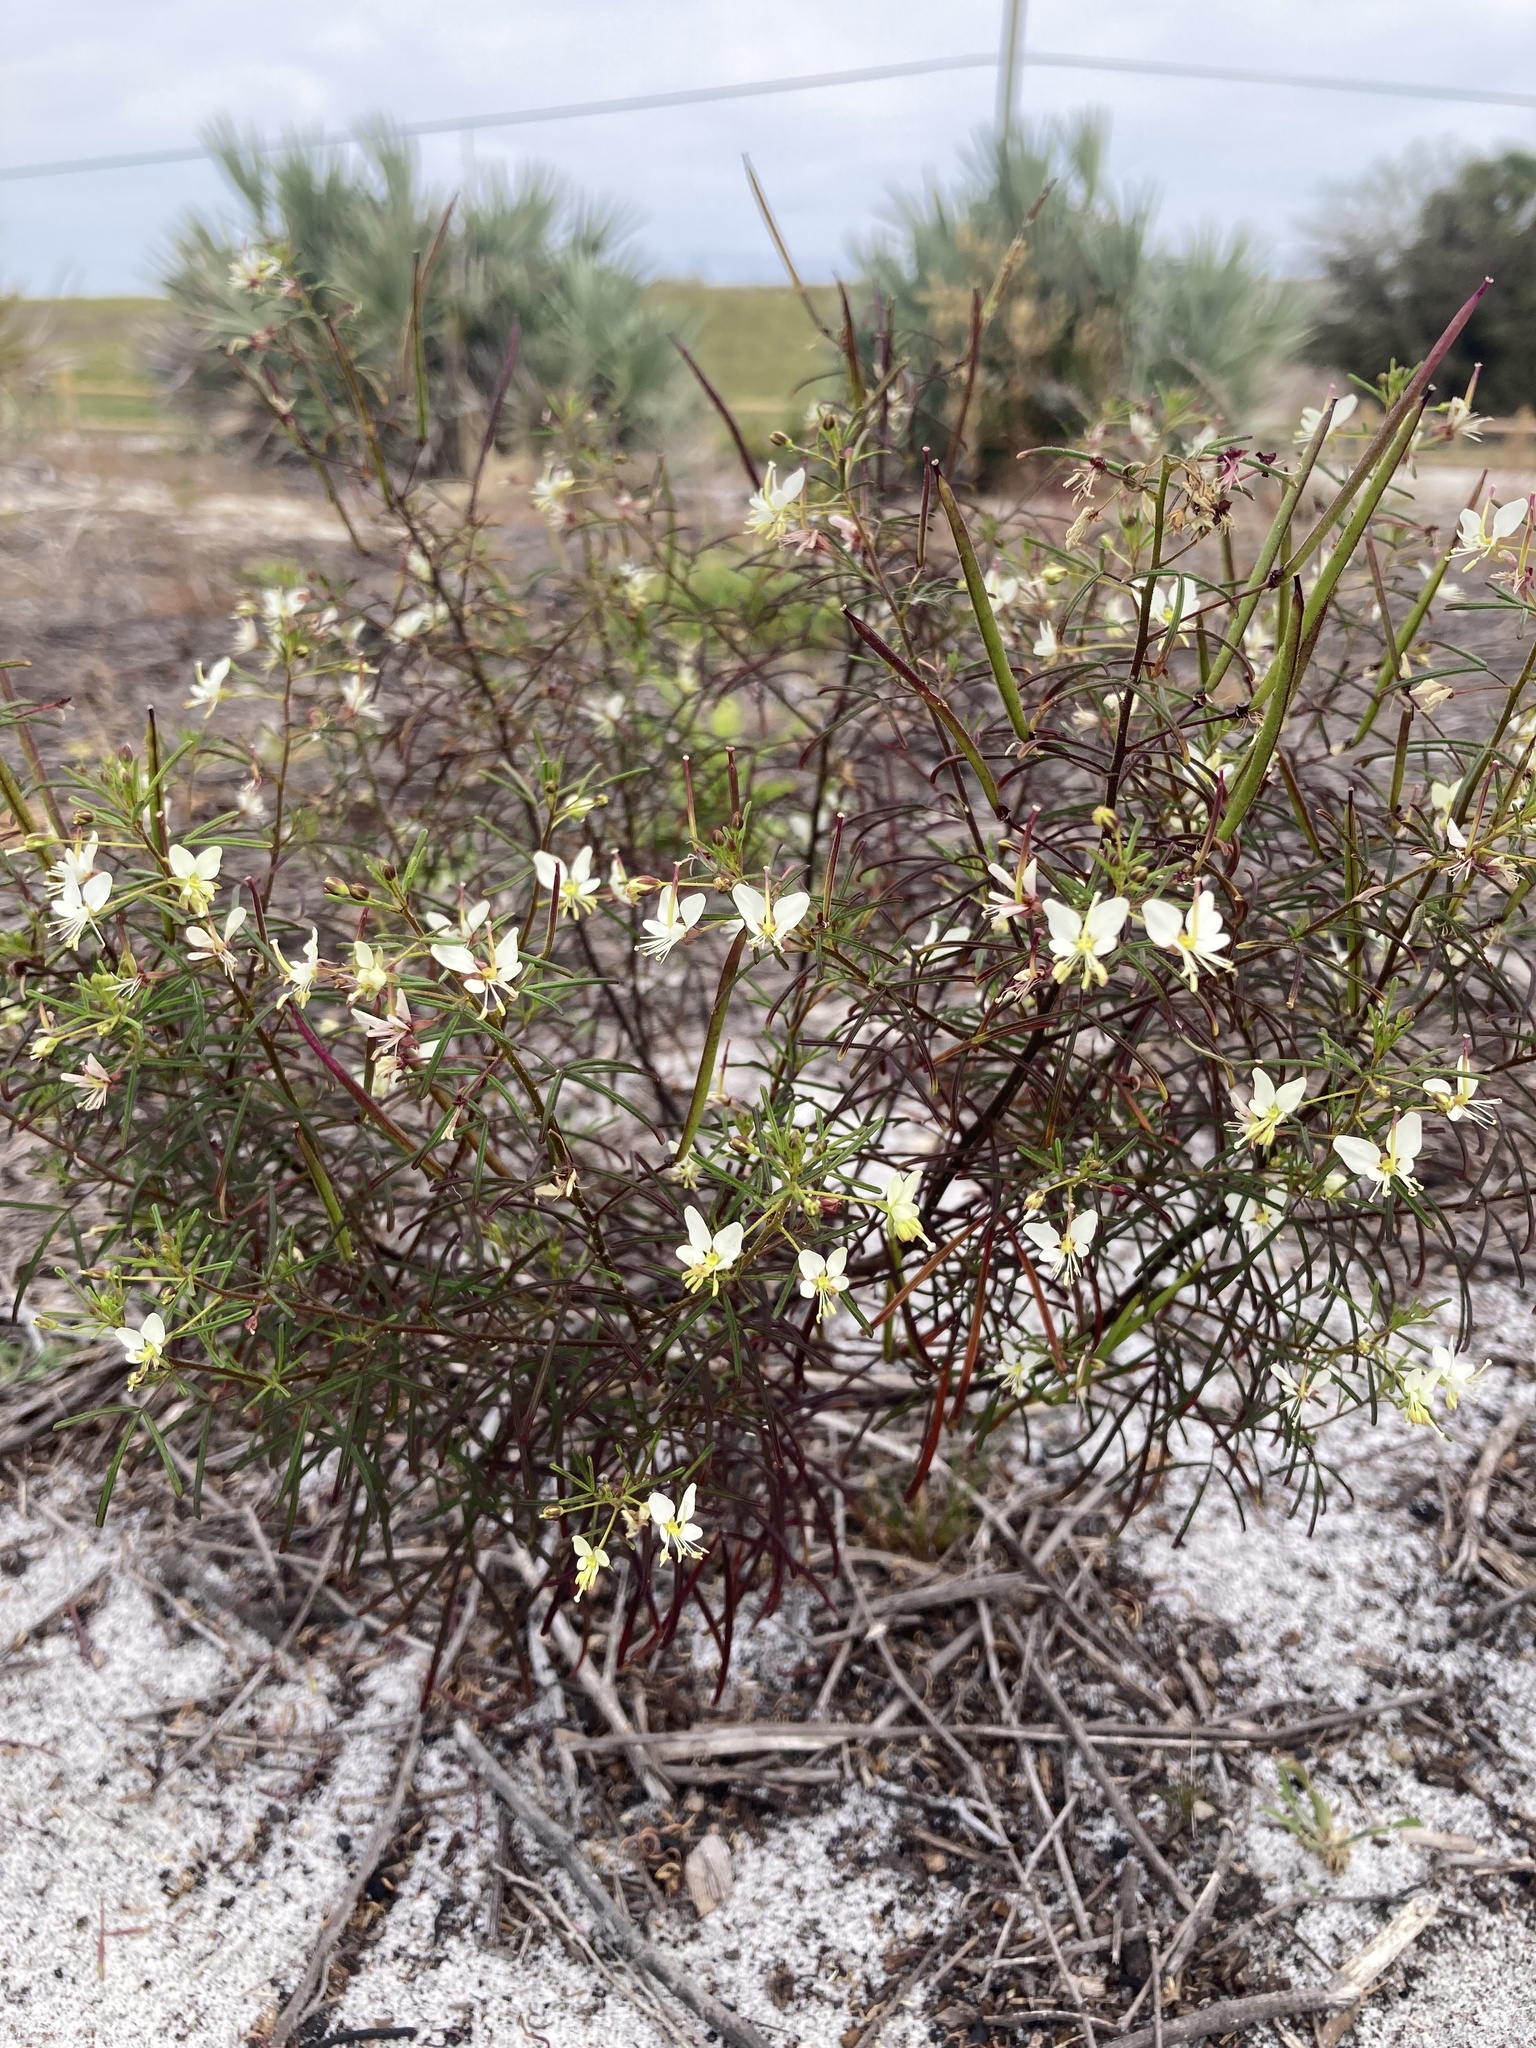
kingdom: Plantae
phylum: Tracheophyta
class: Magnoliopsida
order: Brassicales
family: Cleomaceae
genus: Polanisia
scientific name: Polanisia tenuifolia
